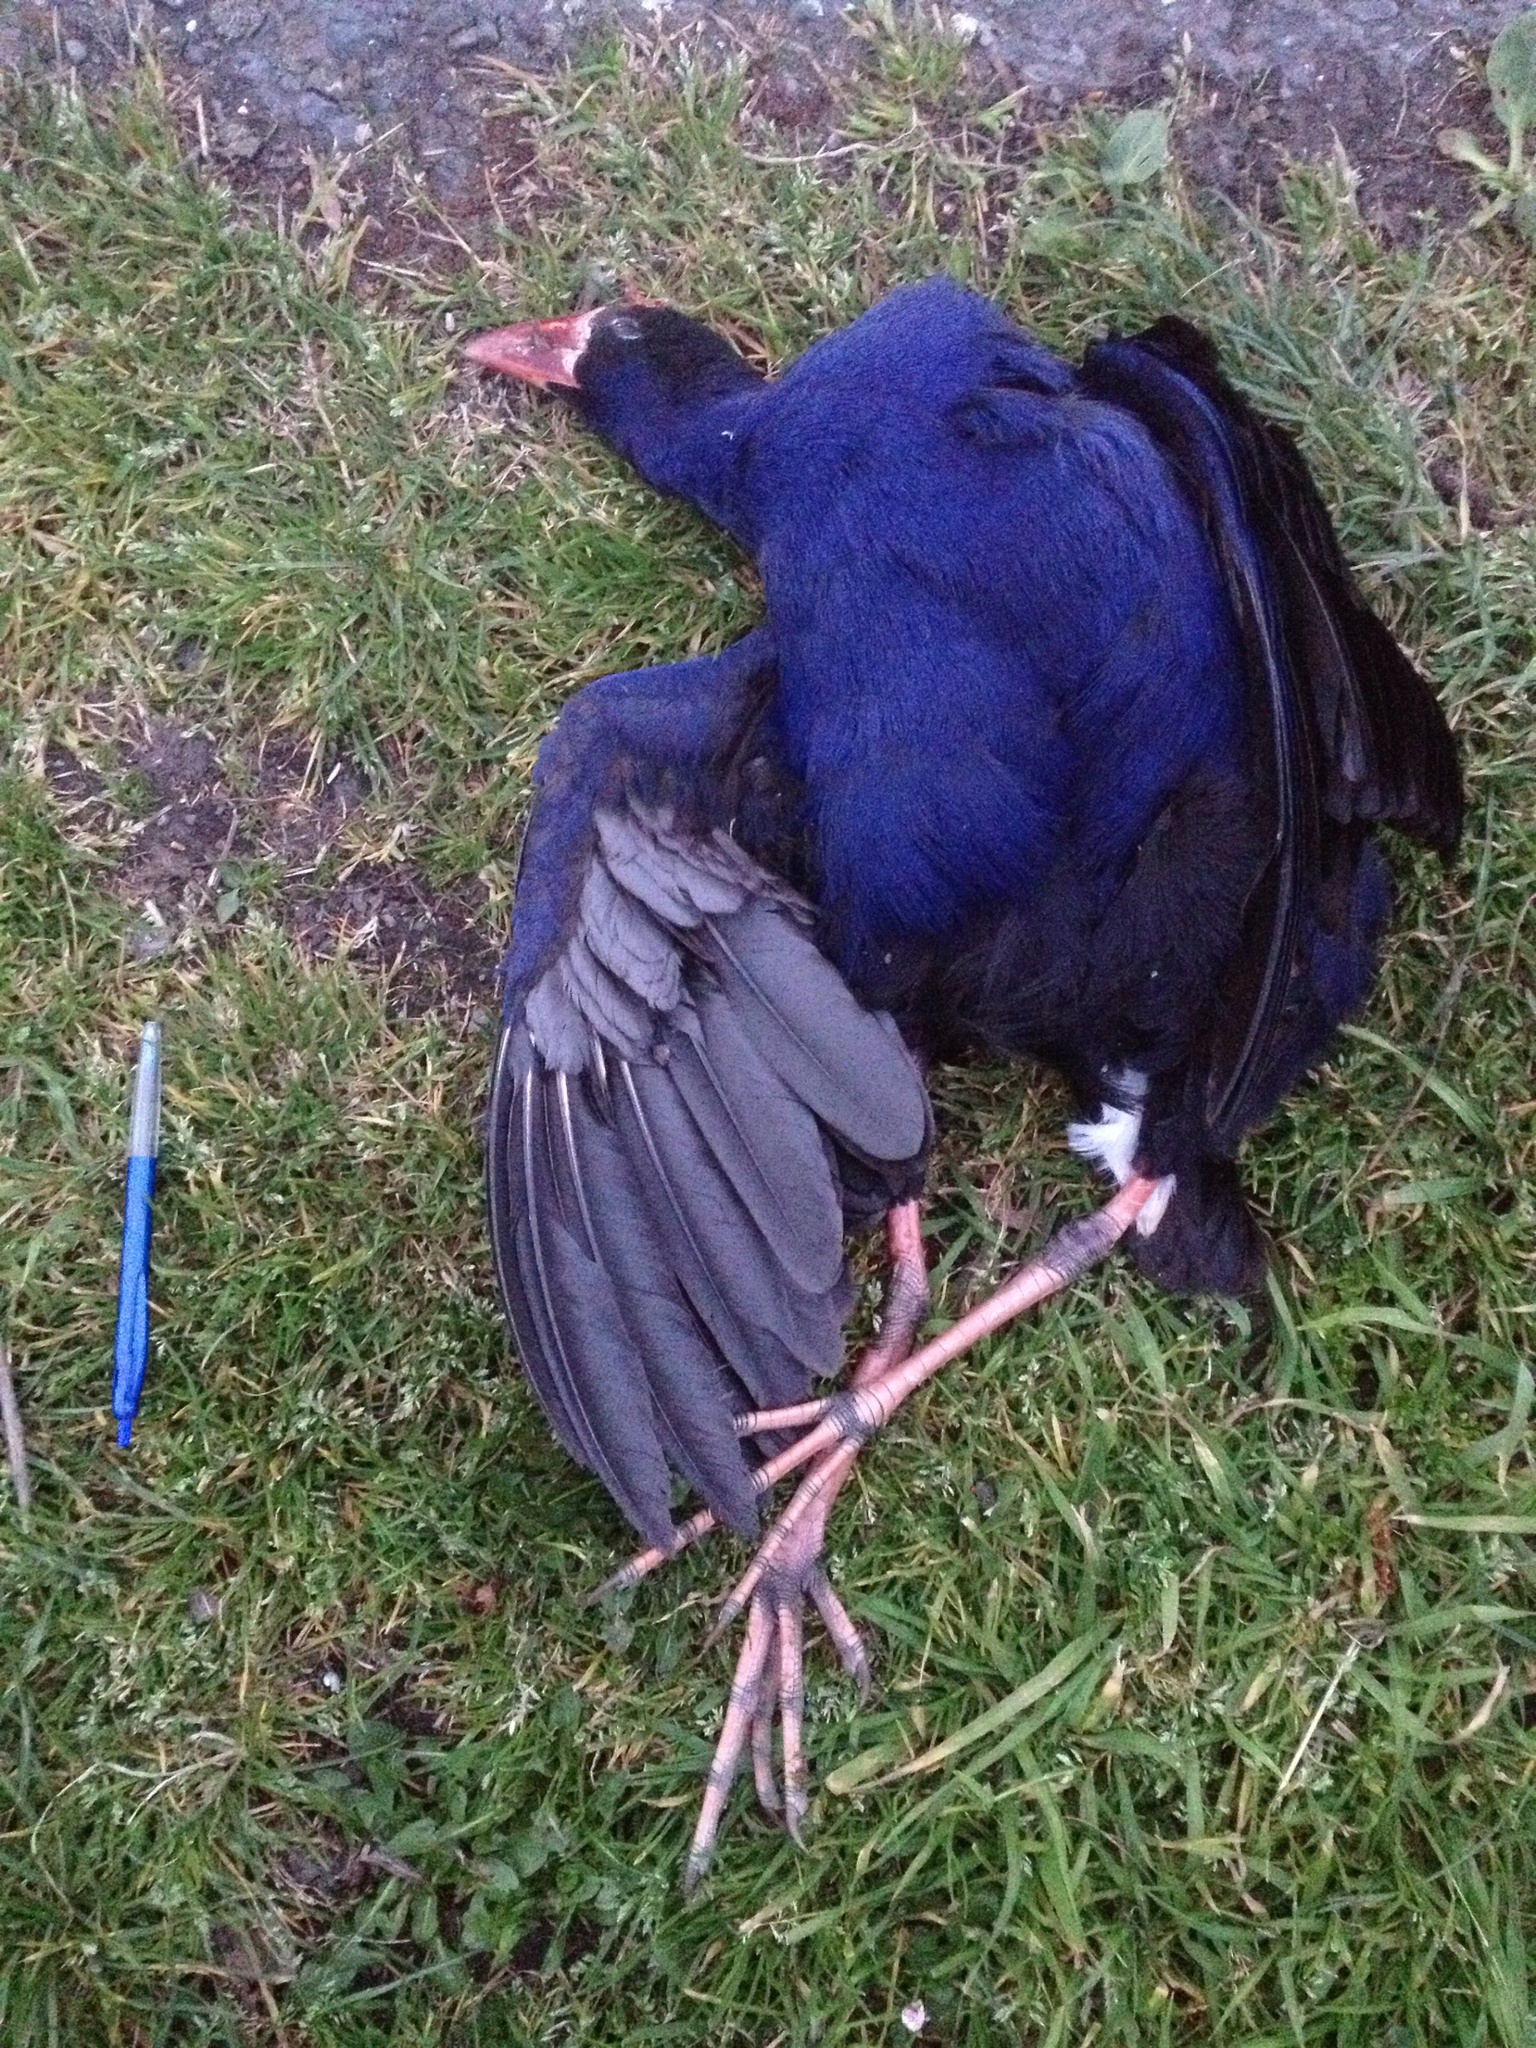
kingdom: Animalia
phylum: Chordata
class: Aves
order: Gruiformes
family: Rallidae
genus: Porphyrio
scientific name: Porphyrio melanotus
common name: Australasian swamphen
